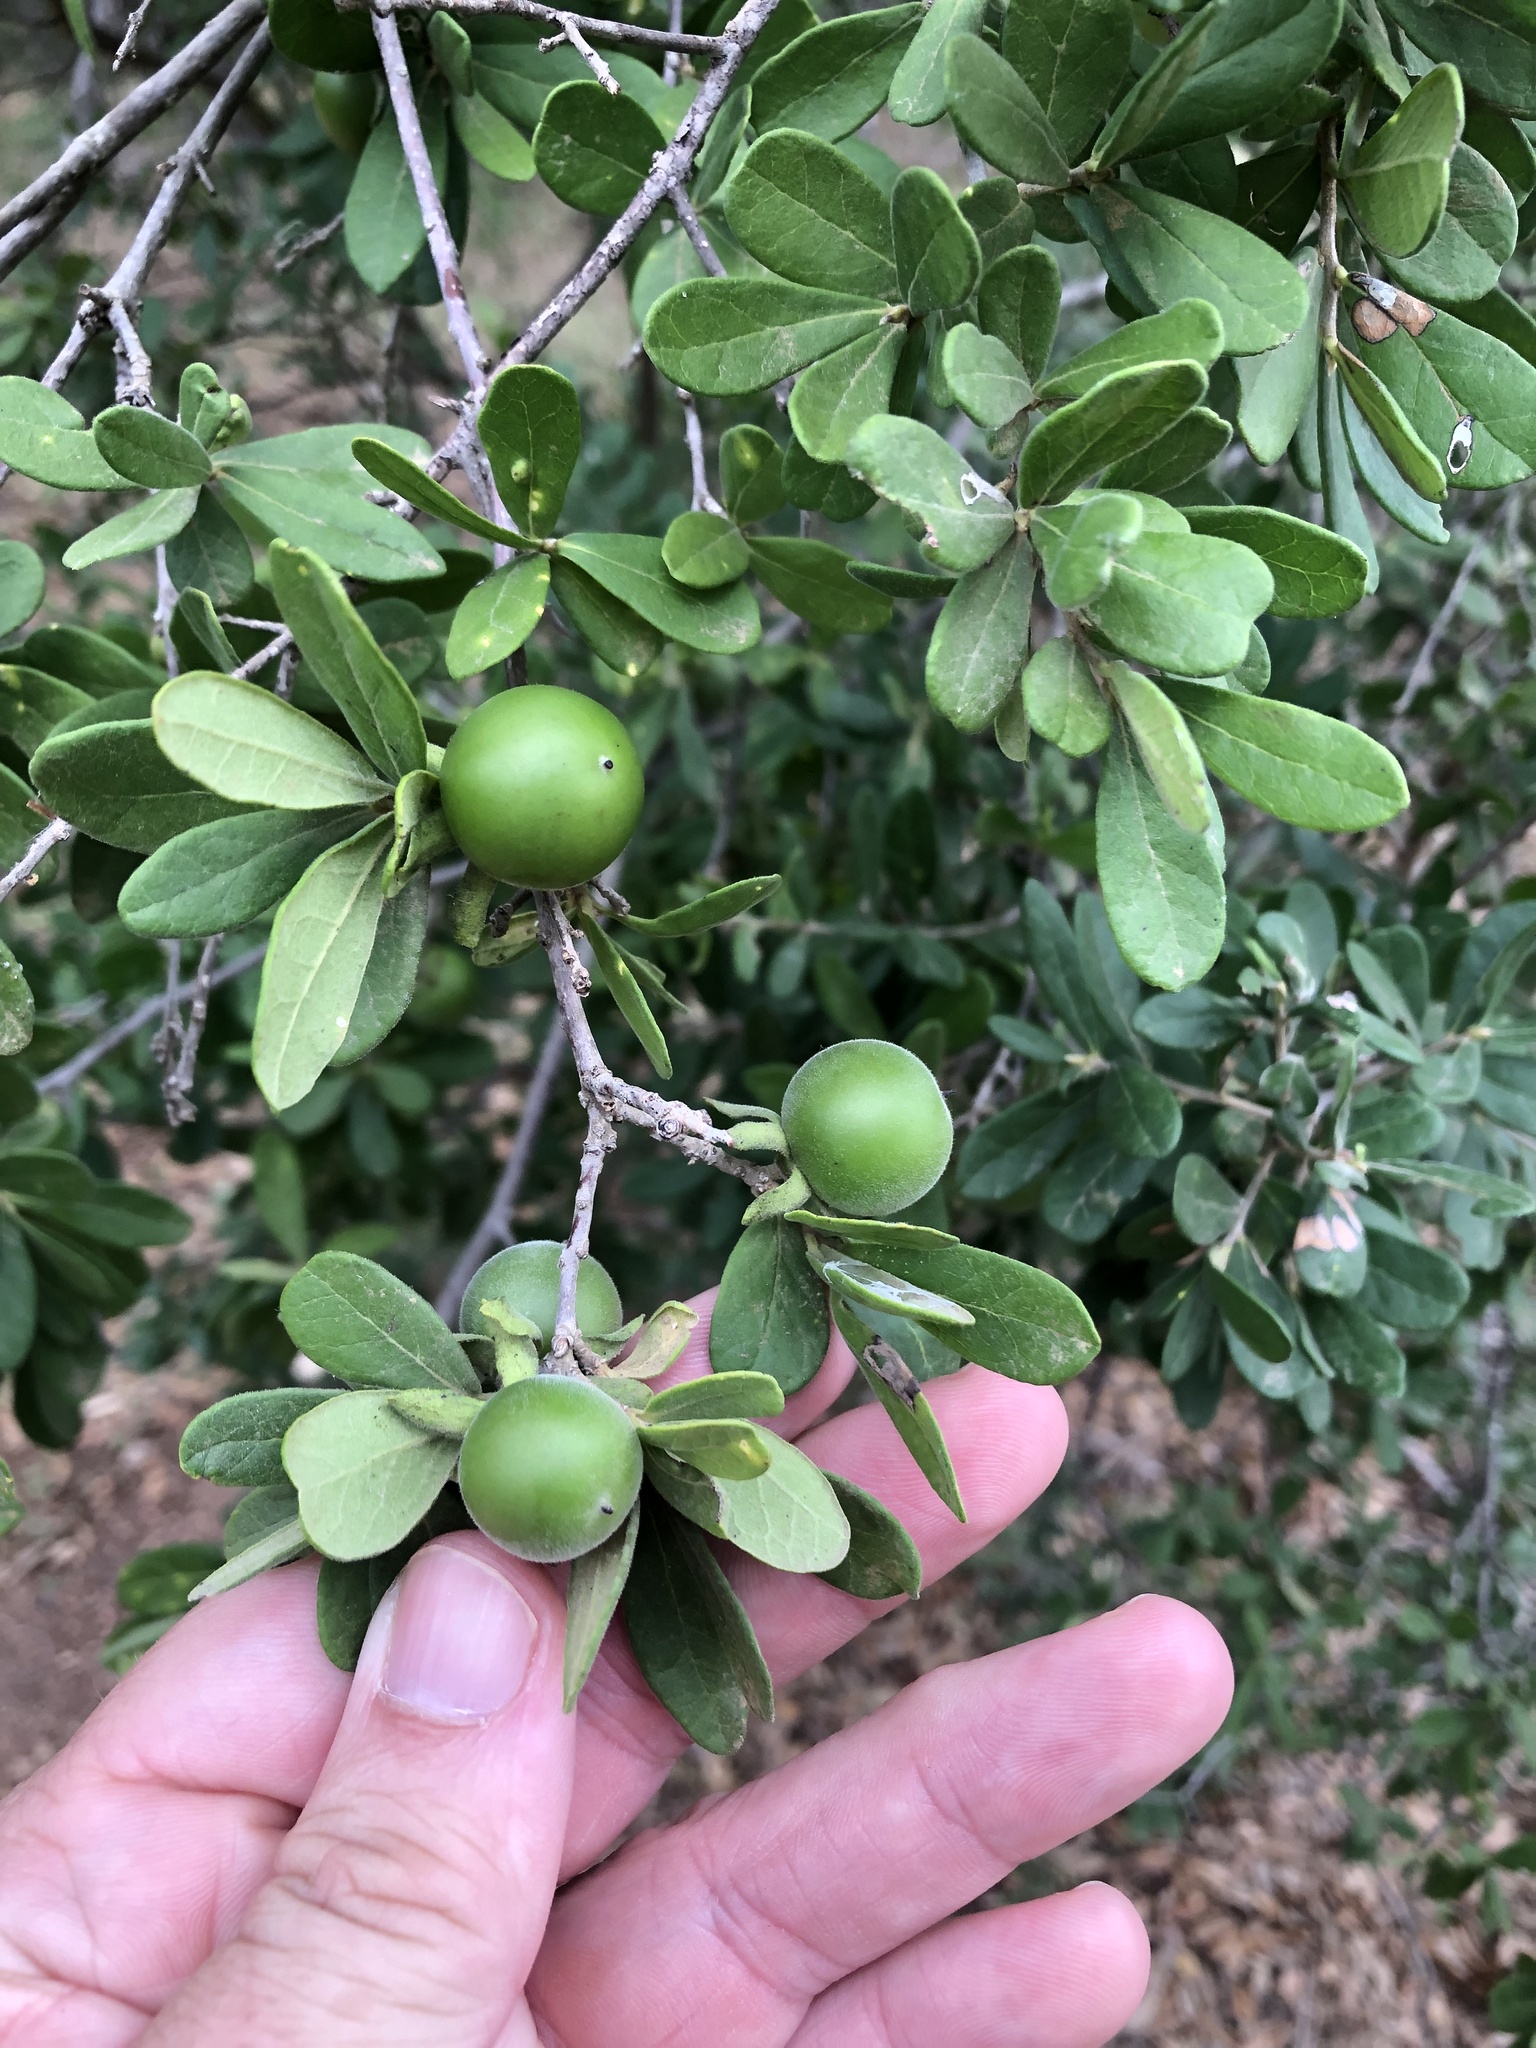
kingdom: Plantae
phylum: Tracheophyta
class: Magnoliopsida
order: Ericales
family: Ebenaceae
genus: Diospyros
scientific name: Diospyros texana
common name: Texas persimmon
